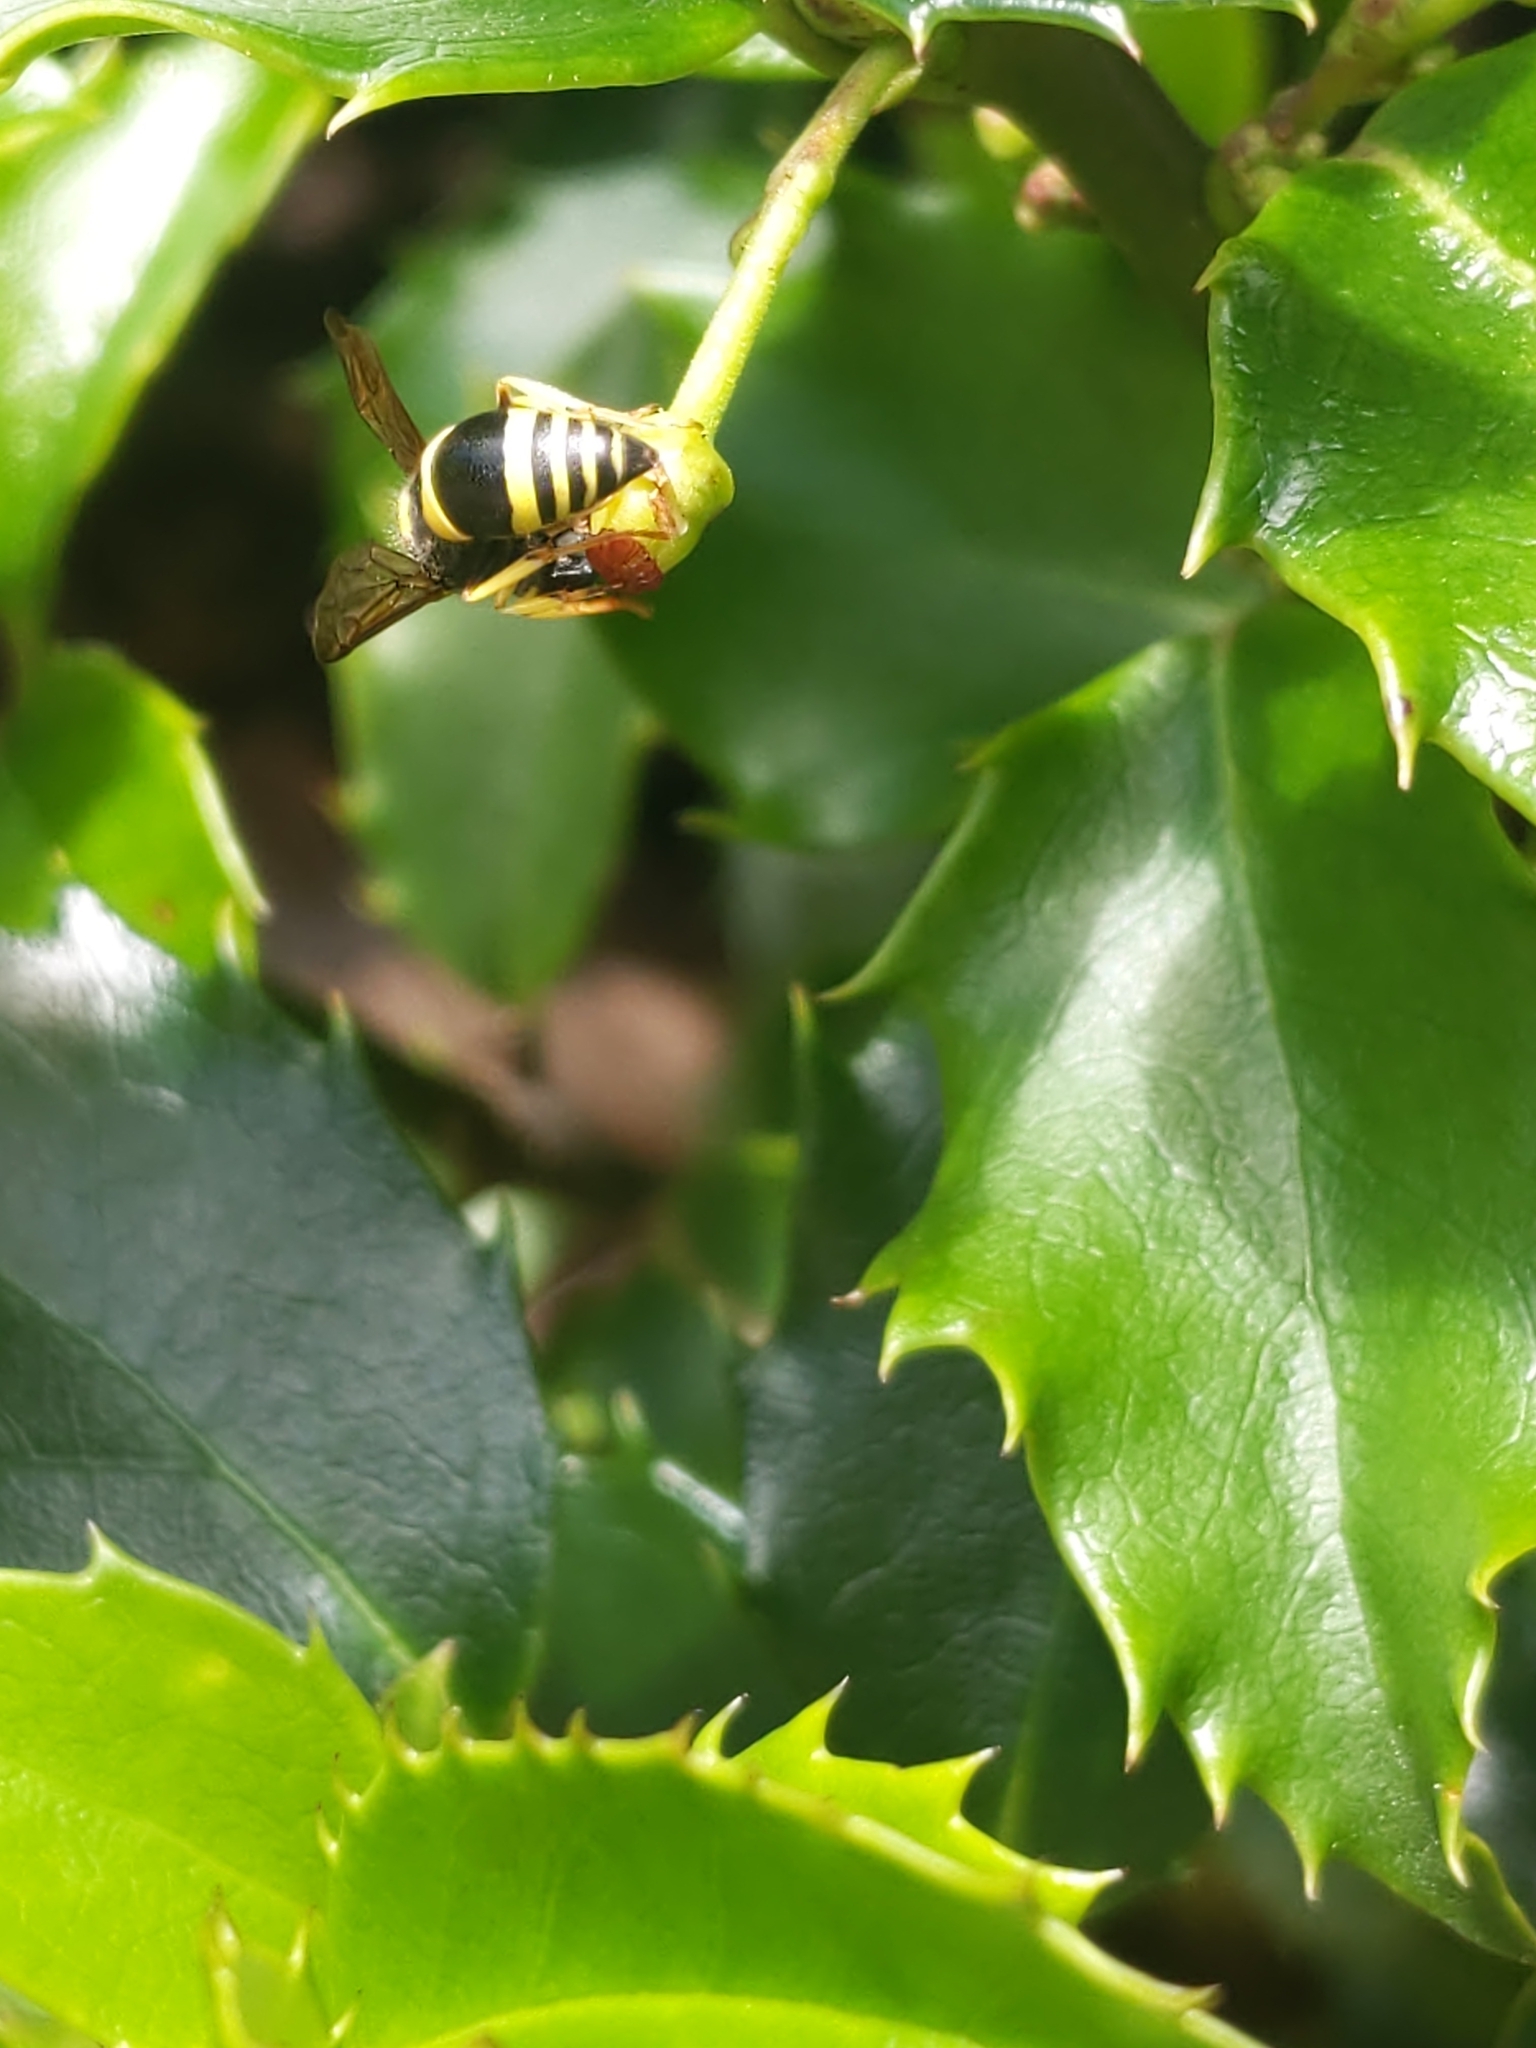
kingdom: Animalia
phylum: Arthropoda
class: Insecta
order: Hymenoptera
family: Vespidae
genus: Ancistrocerus
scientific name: Ancistrocerus gazella
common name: European tube wasp
